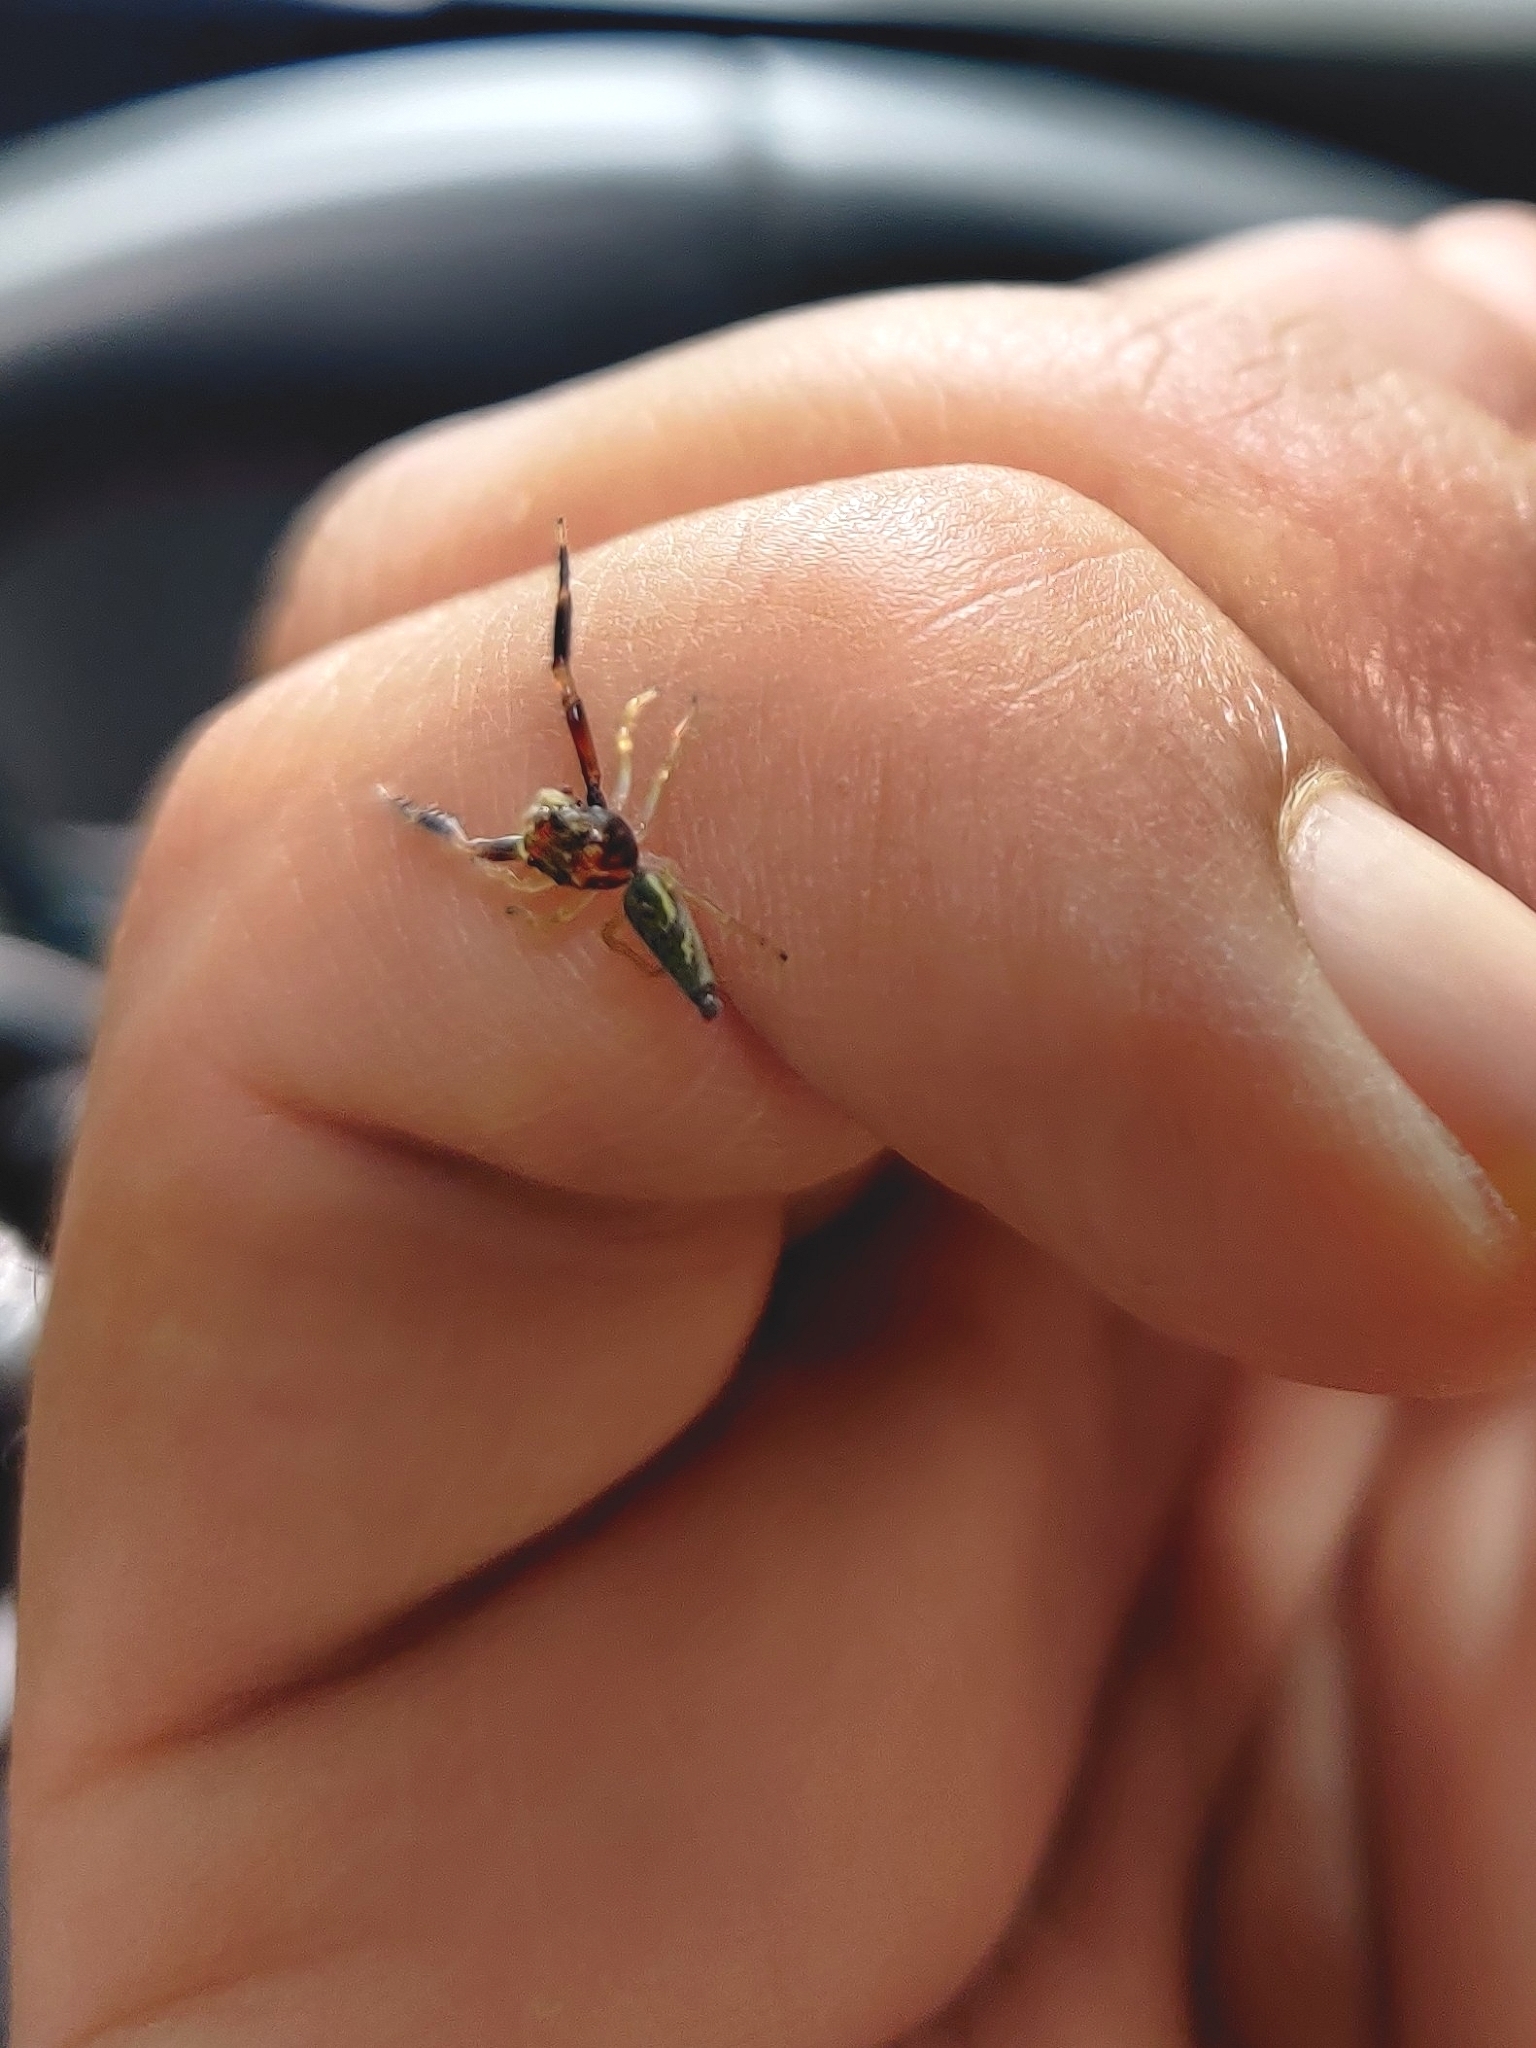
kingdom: Animalia
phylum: Arthropoda
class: Arachnida
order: Araneae
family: Salticidae
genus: Indopadilla
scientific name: Indopadilla kodagura
